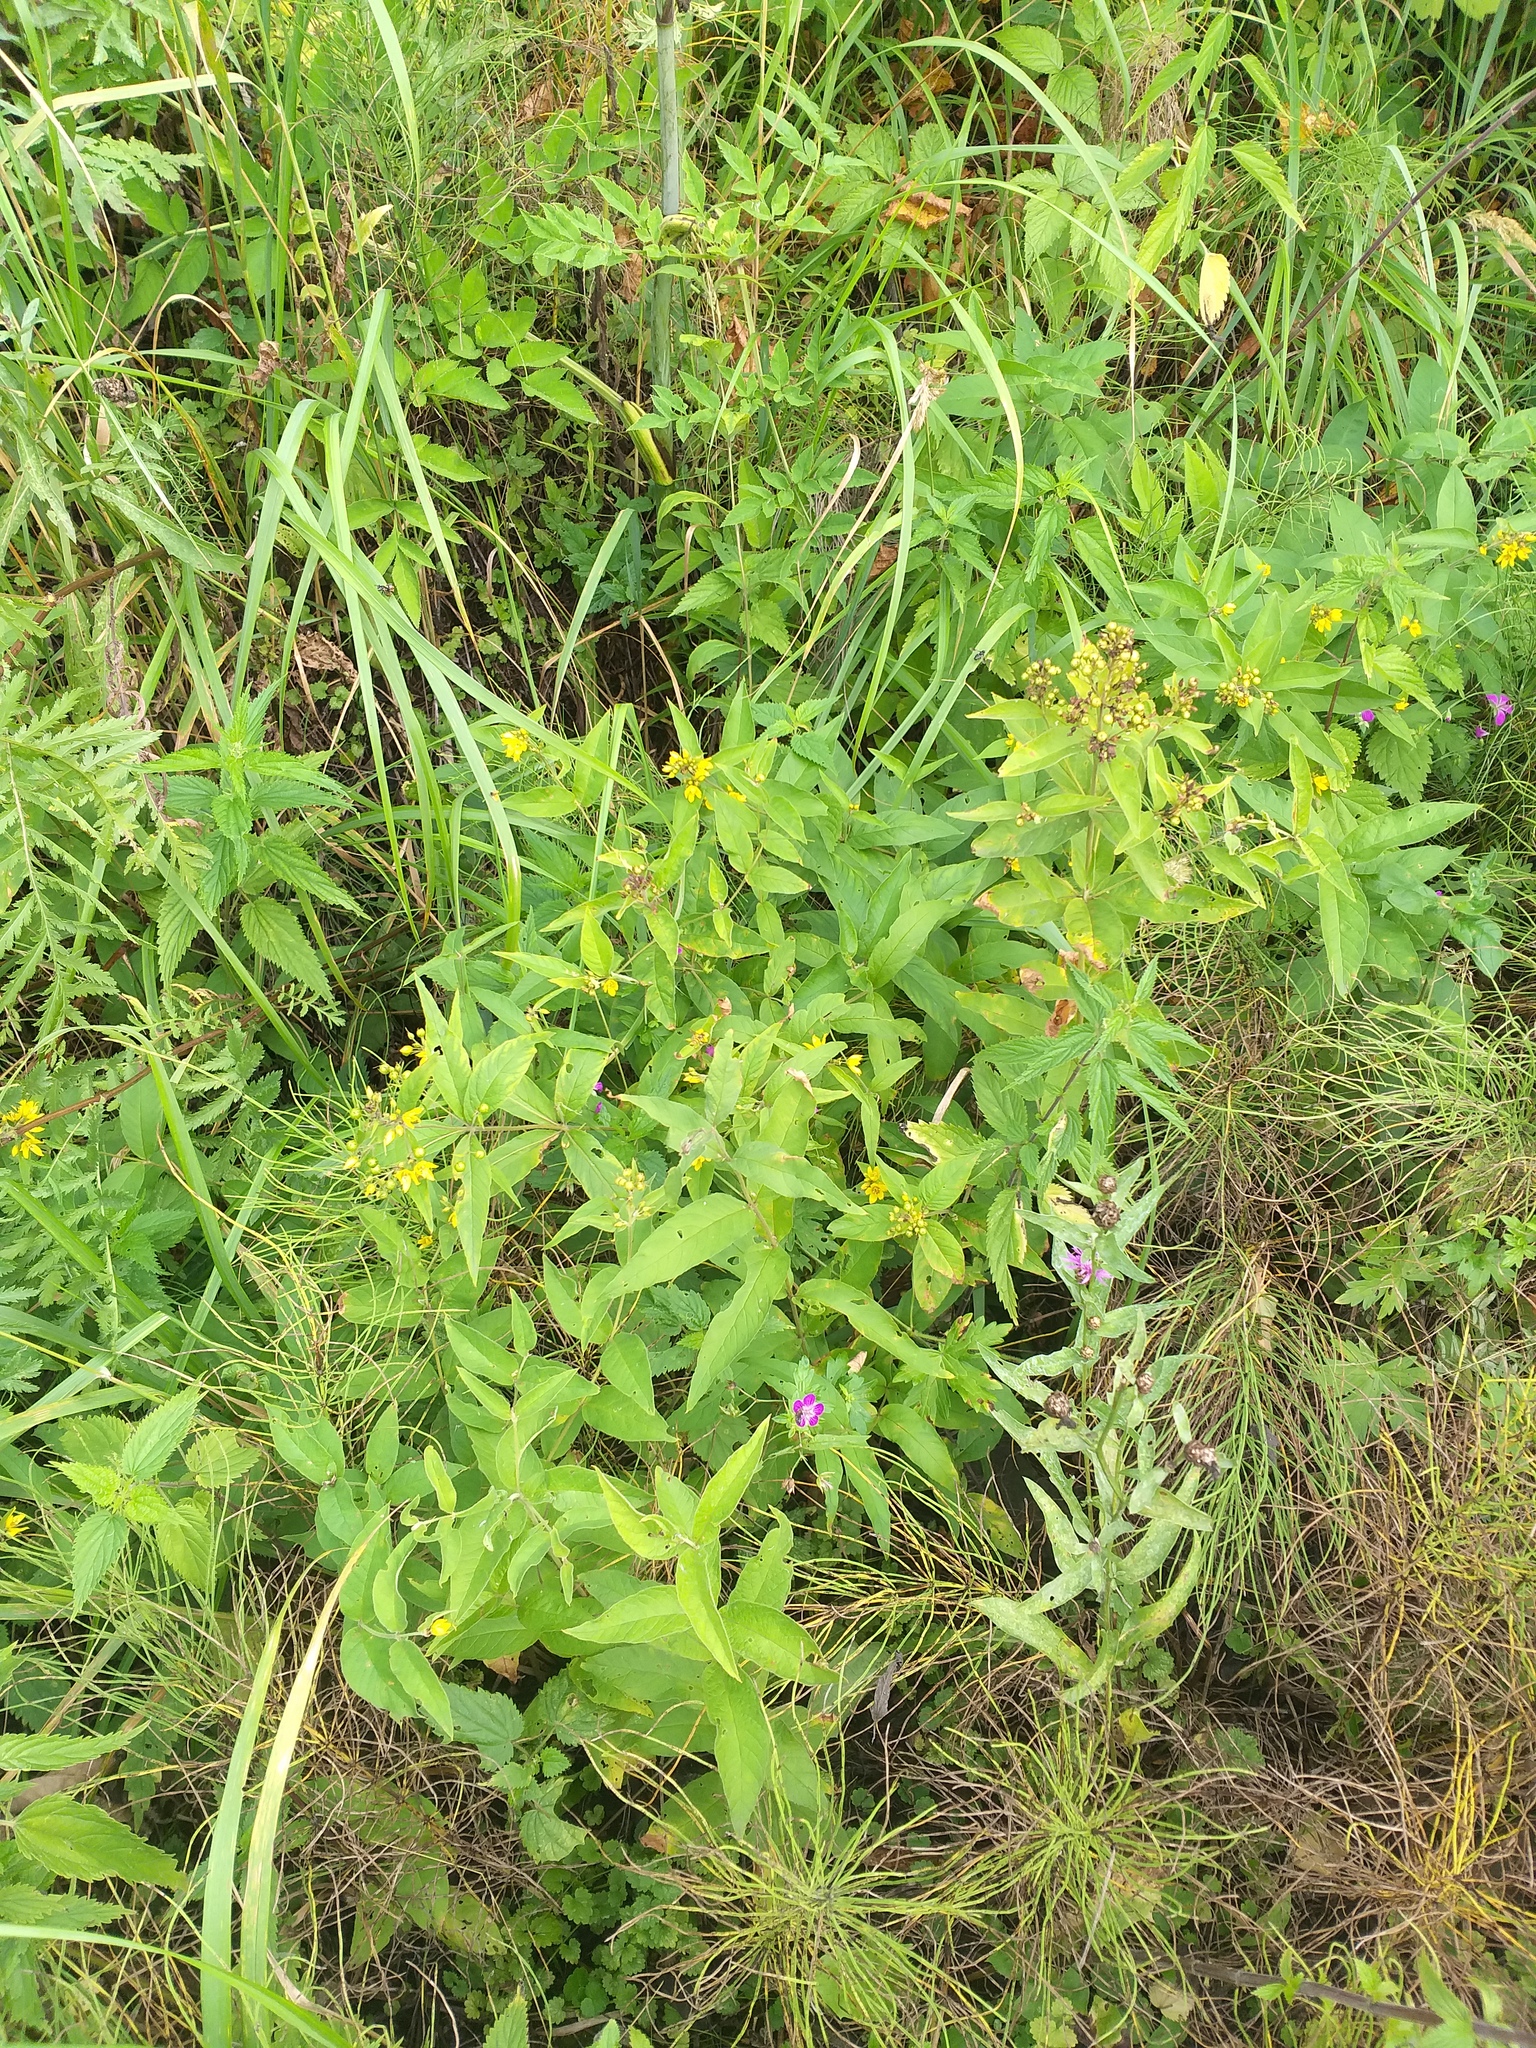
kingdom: Plantae
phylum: Tracheophyta
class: Magnoliopsida
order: Ericales
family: Primulaceae
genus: Lysimachia
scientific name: Lysimachia vulgaris
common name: Yellow loosestrife
